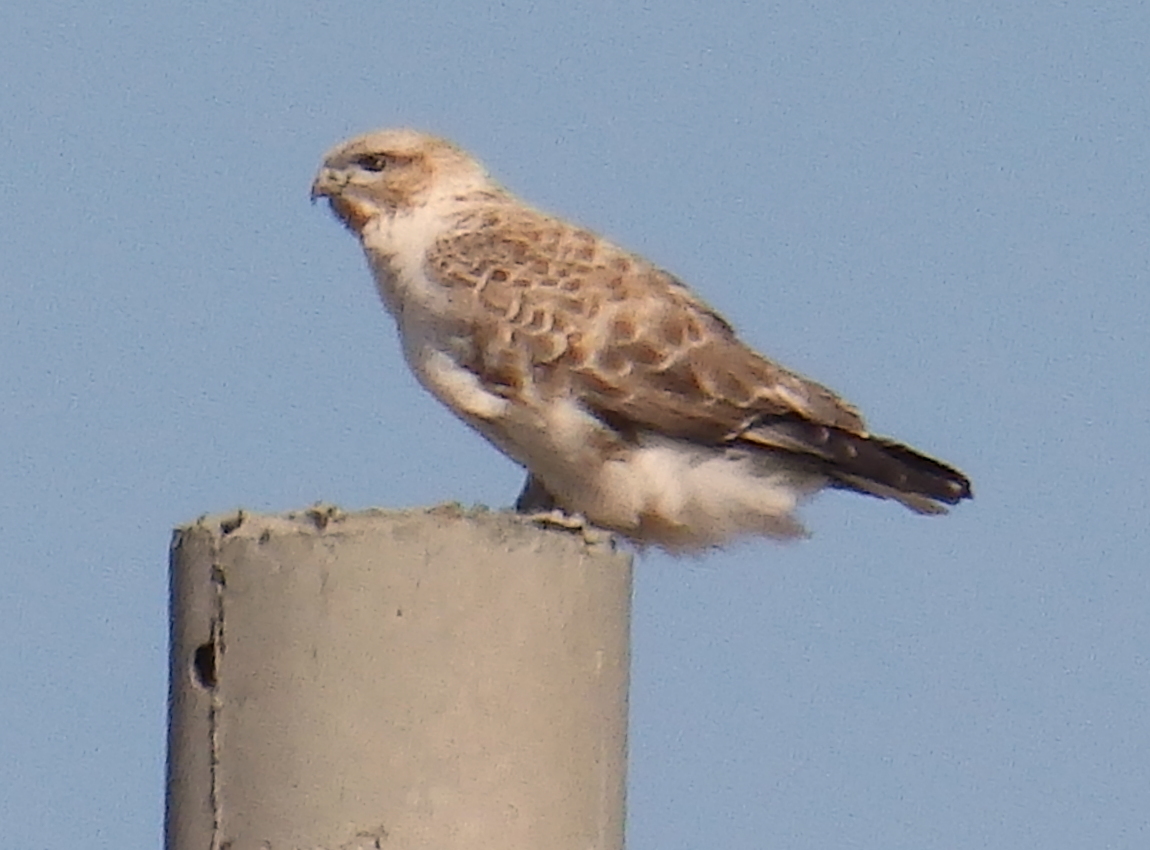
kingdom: Animalia
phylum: Chordata
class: Aves
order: Accipitriformes
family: Accipitridae
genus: Buteo
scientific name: Buteo hemilasius
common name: Upland buzzard
